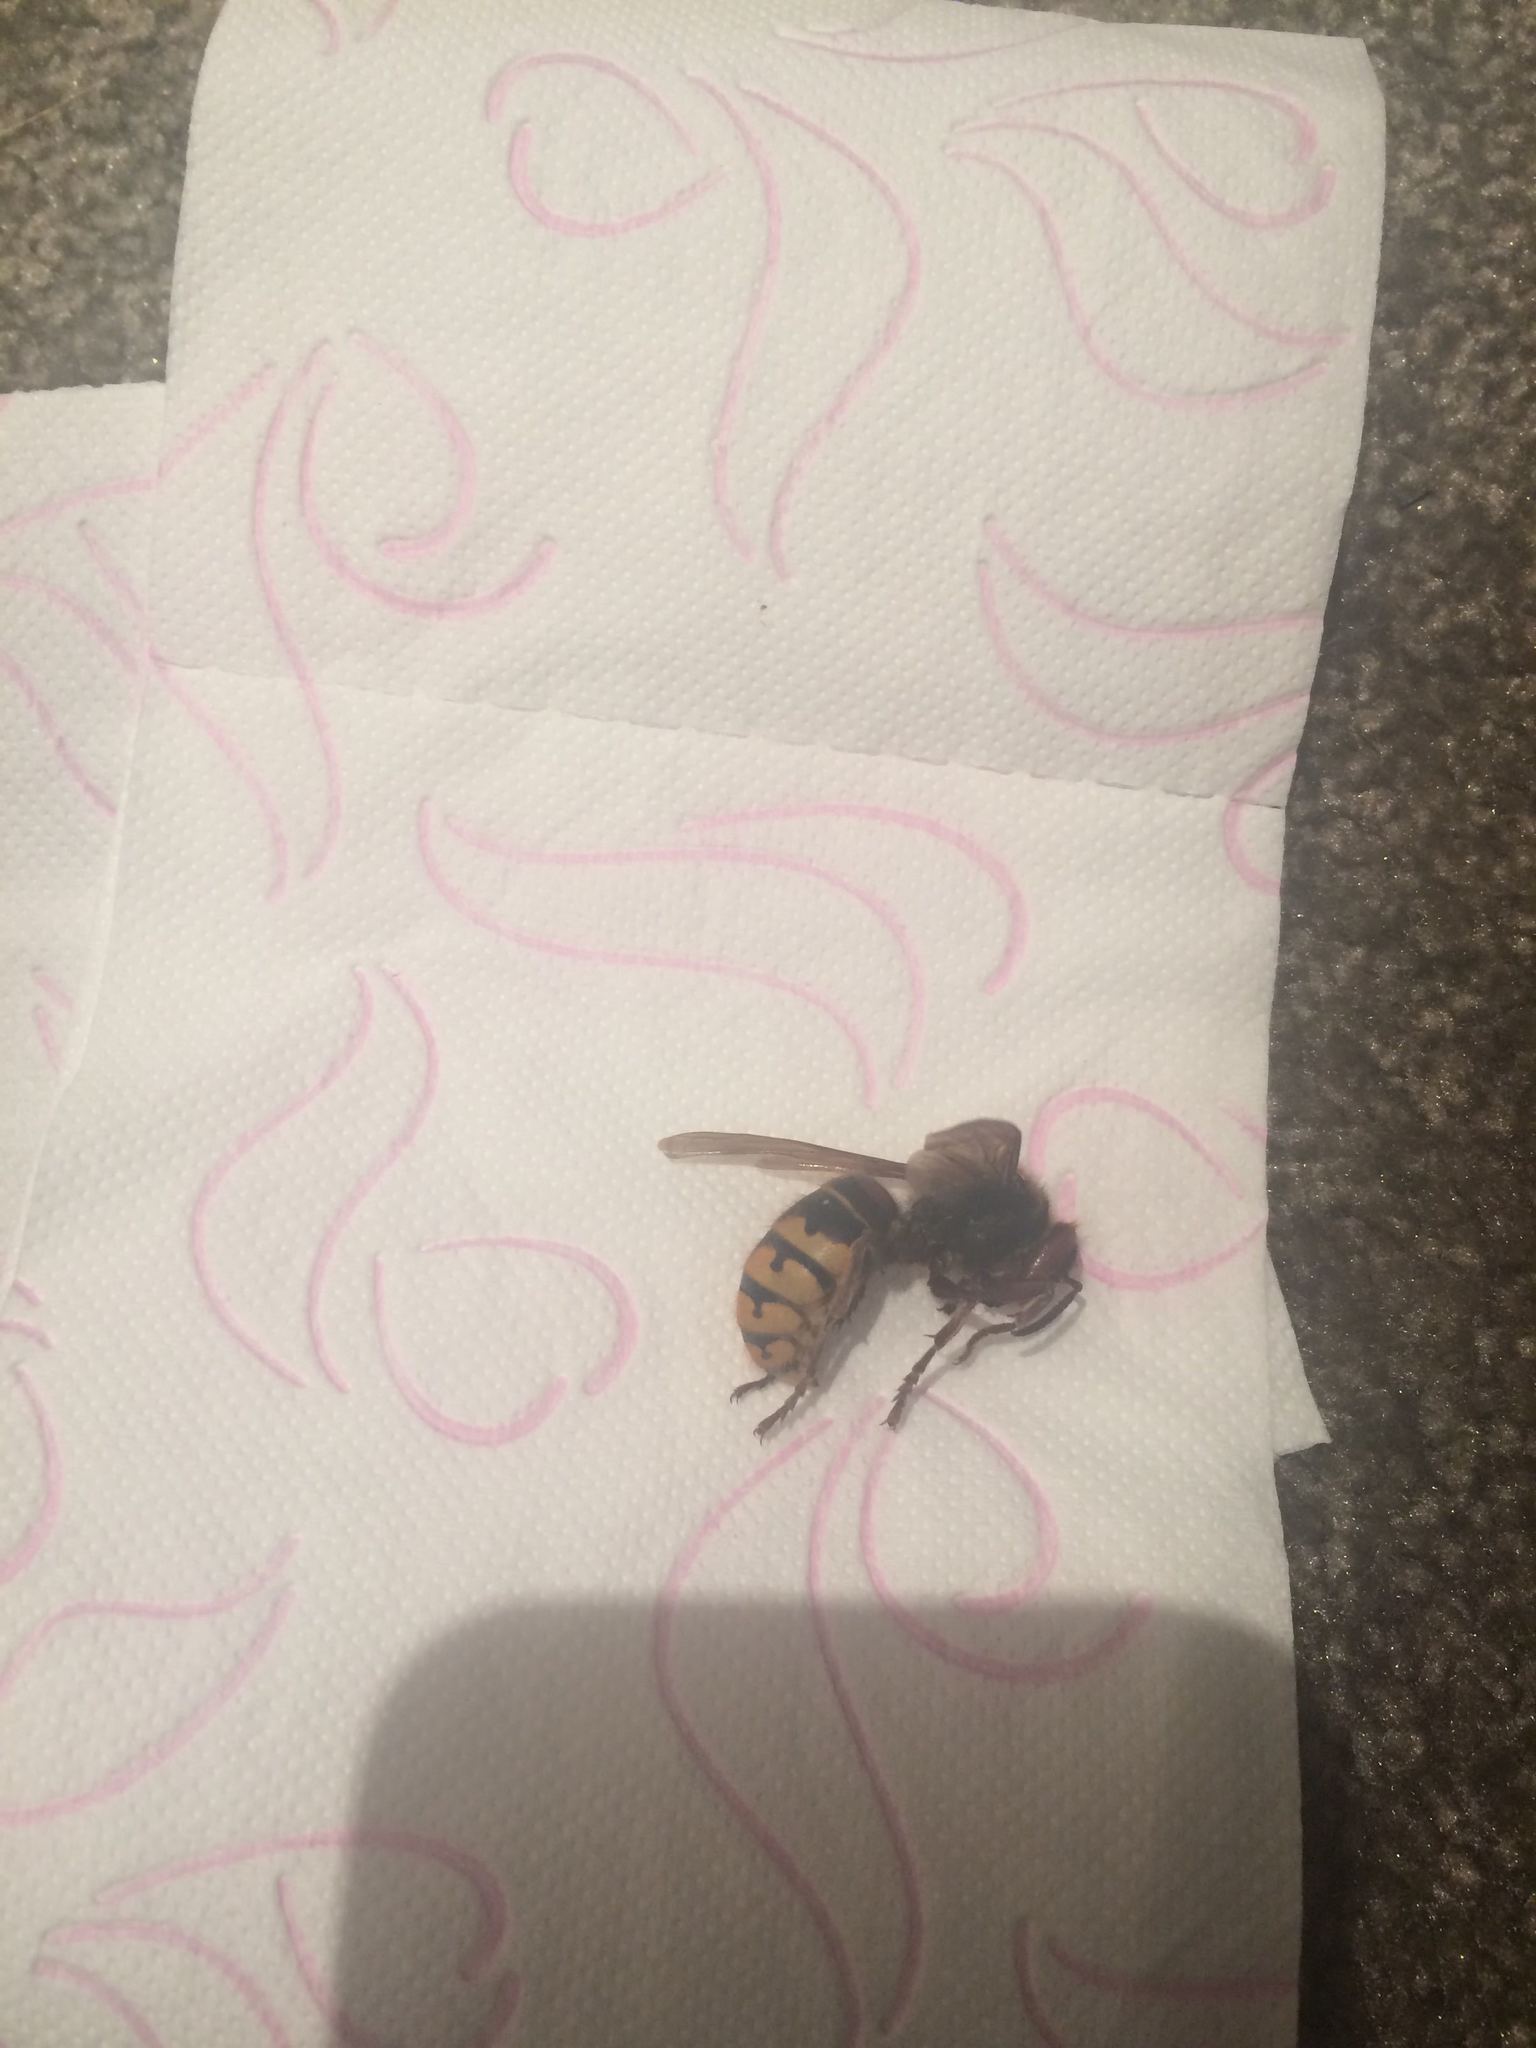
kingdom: Animalia
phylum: Arthropoda
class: Insecta
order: Hymenoptera
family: Vespidae
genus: Vespa
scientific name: Vespa crabro
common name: Hornet
